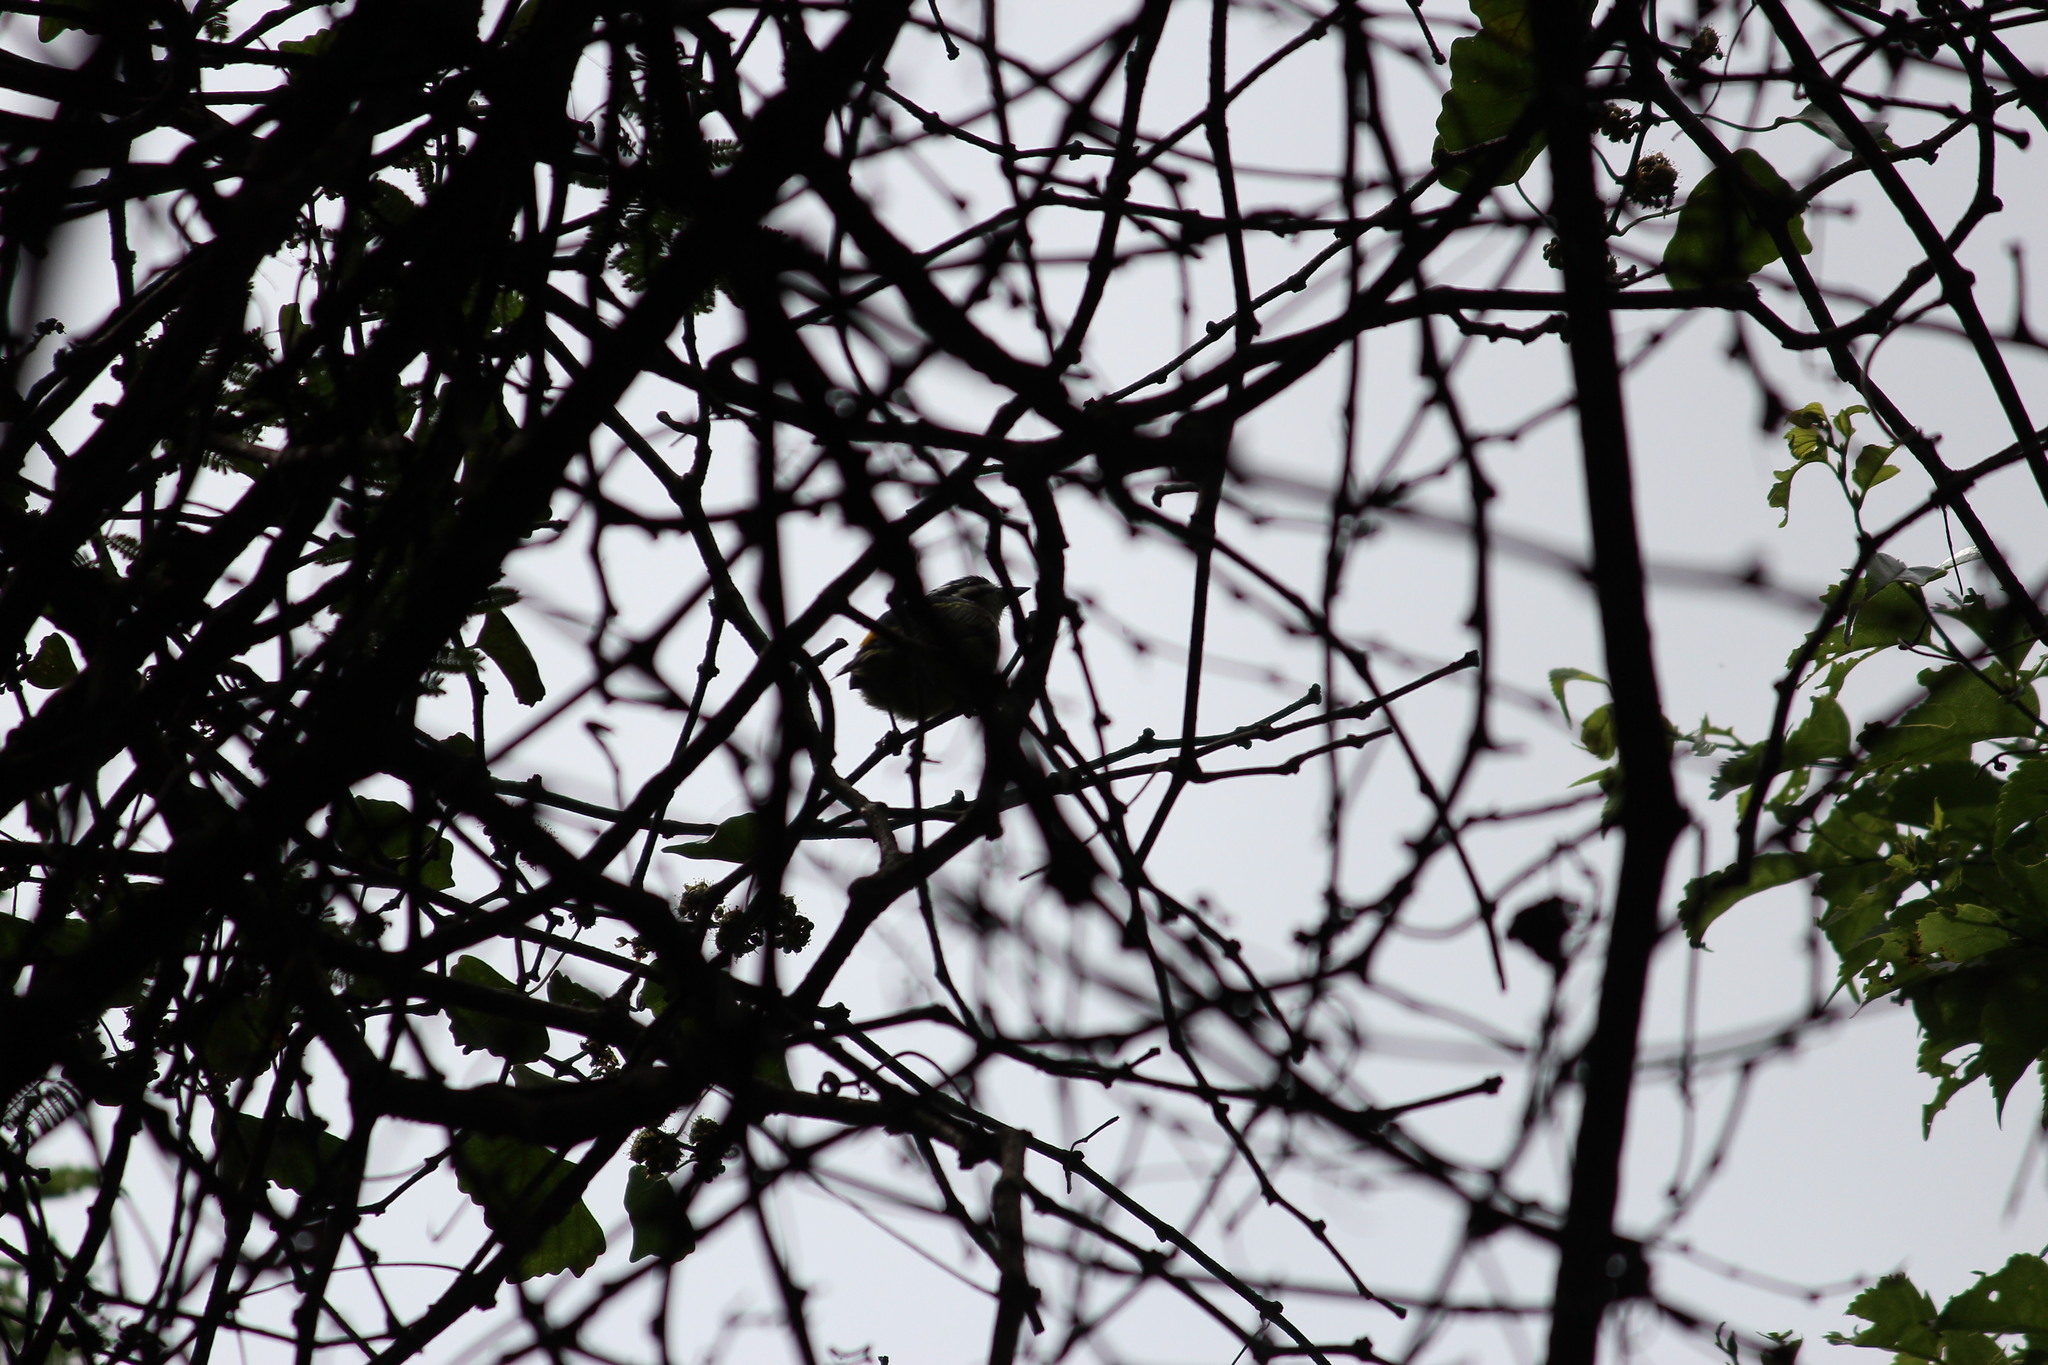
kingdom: Animalia
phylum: Chordata
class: Aves
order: Piciformes
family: Lybiidae
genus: Pogoniulus
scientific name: Pogoniulus bilineatus
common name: Yellow-rumped tinkerbird
